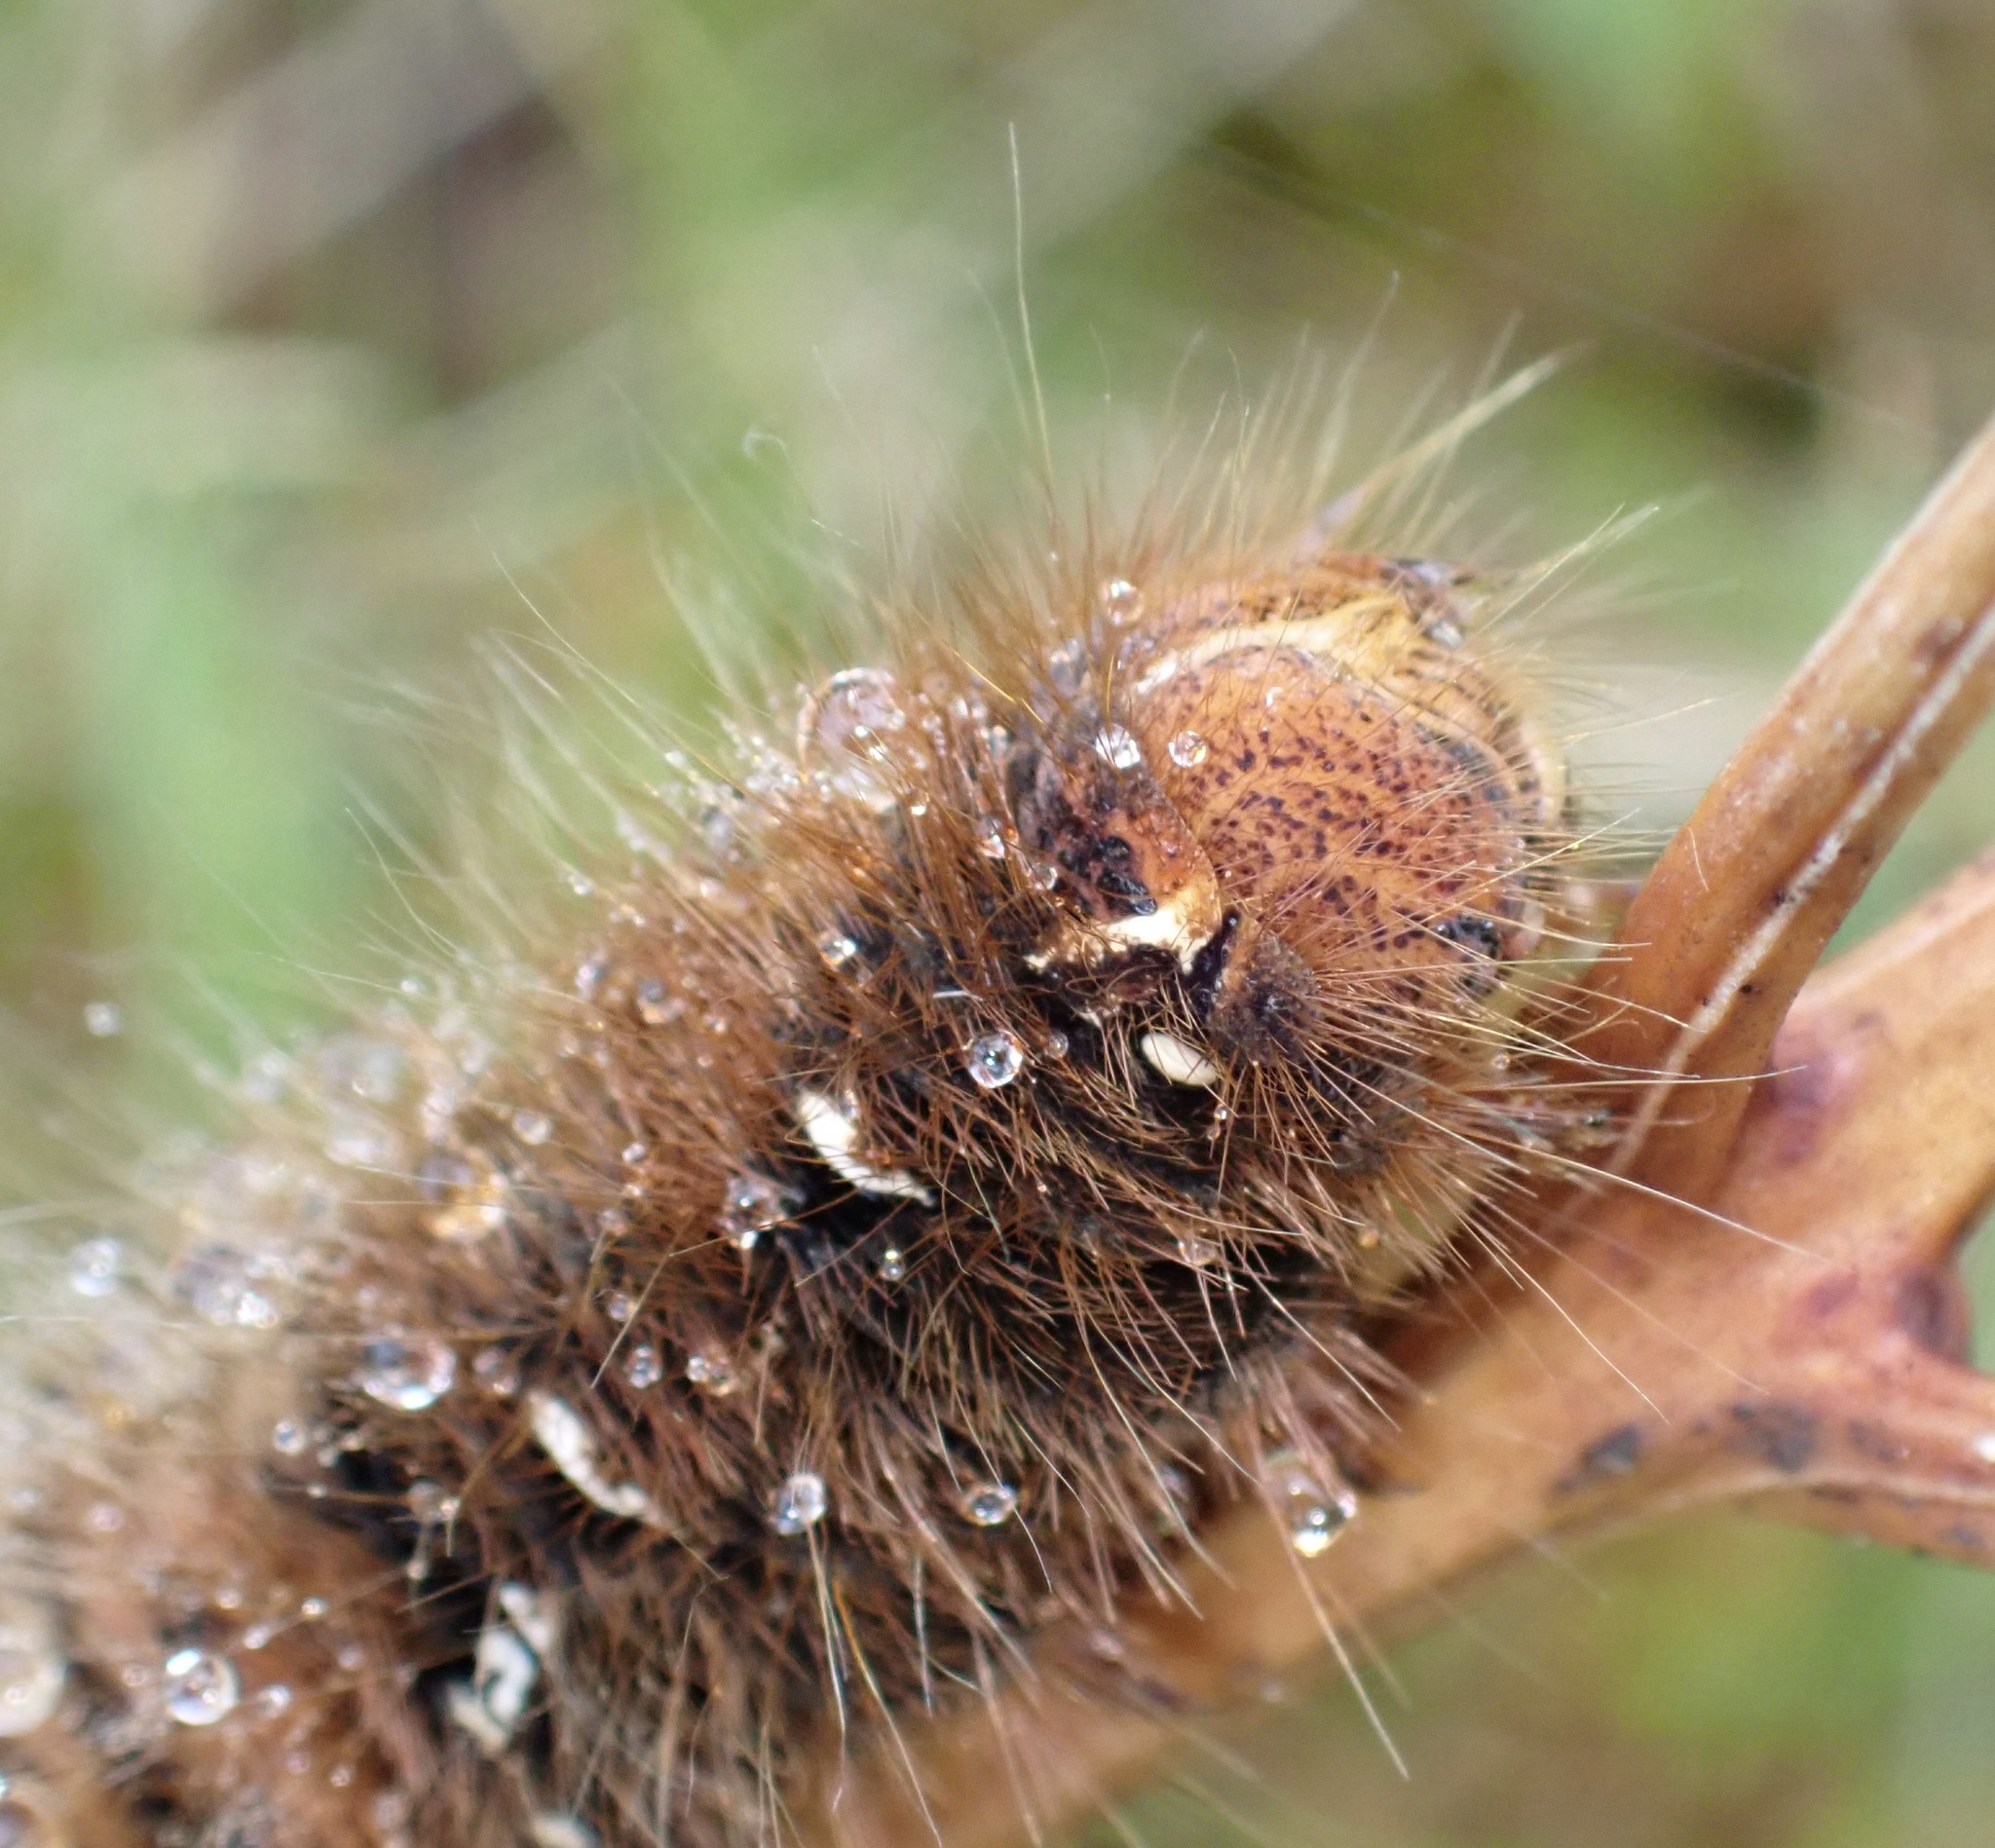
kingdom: Animalia
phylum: Arthropoda
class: Insecta
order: Lepidoptera
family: Lasiocampidae
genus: Lasiocampa
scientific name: Lasiocampa quercus
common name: Oak eggar
